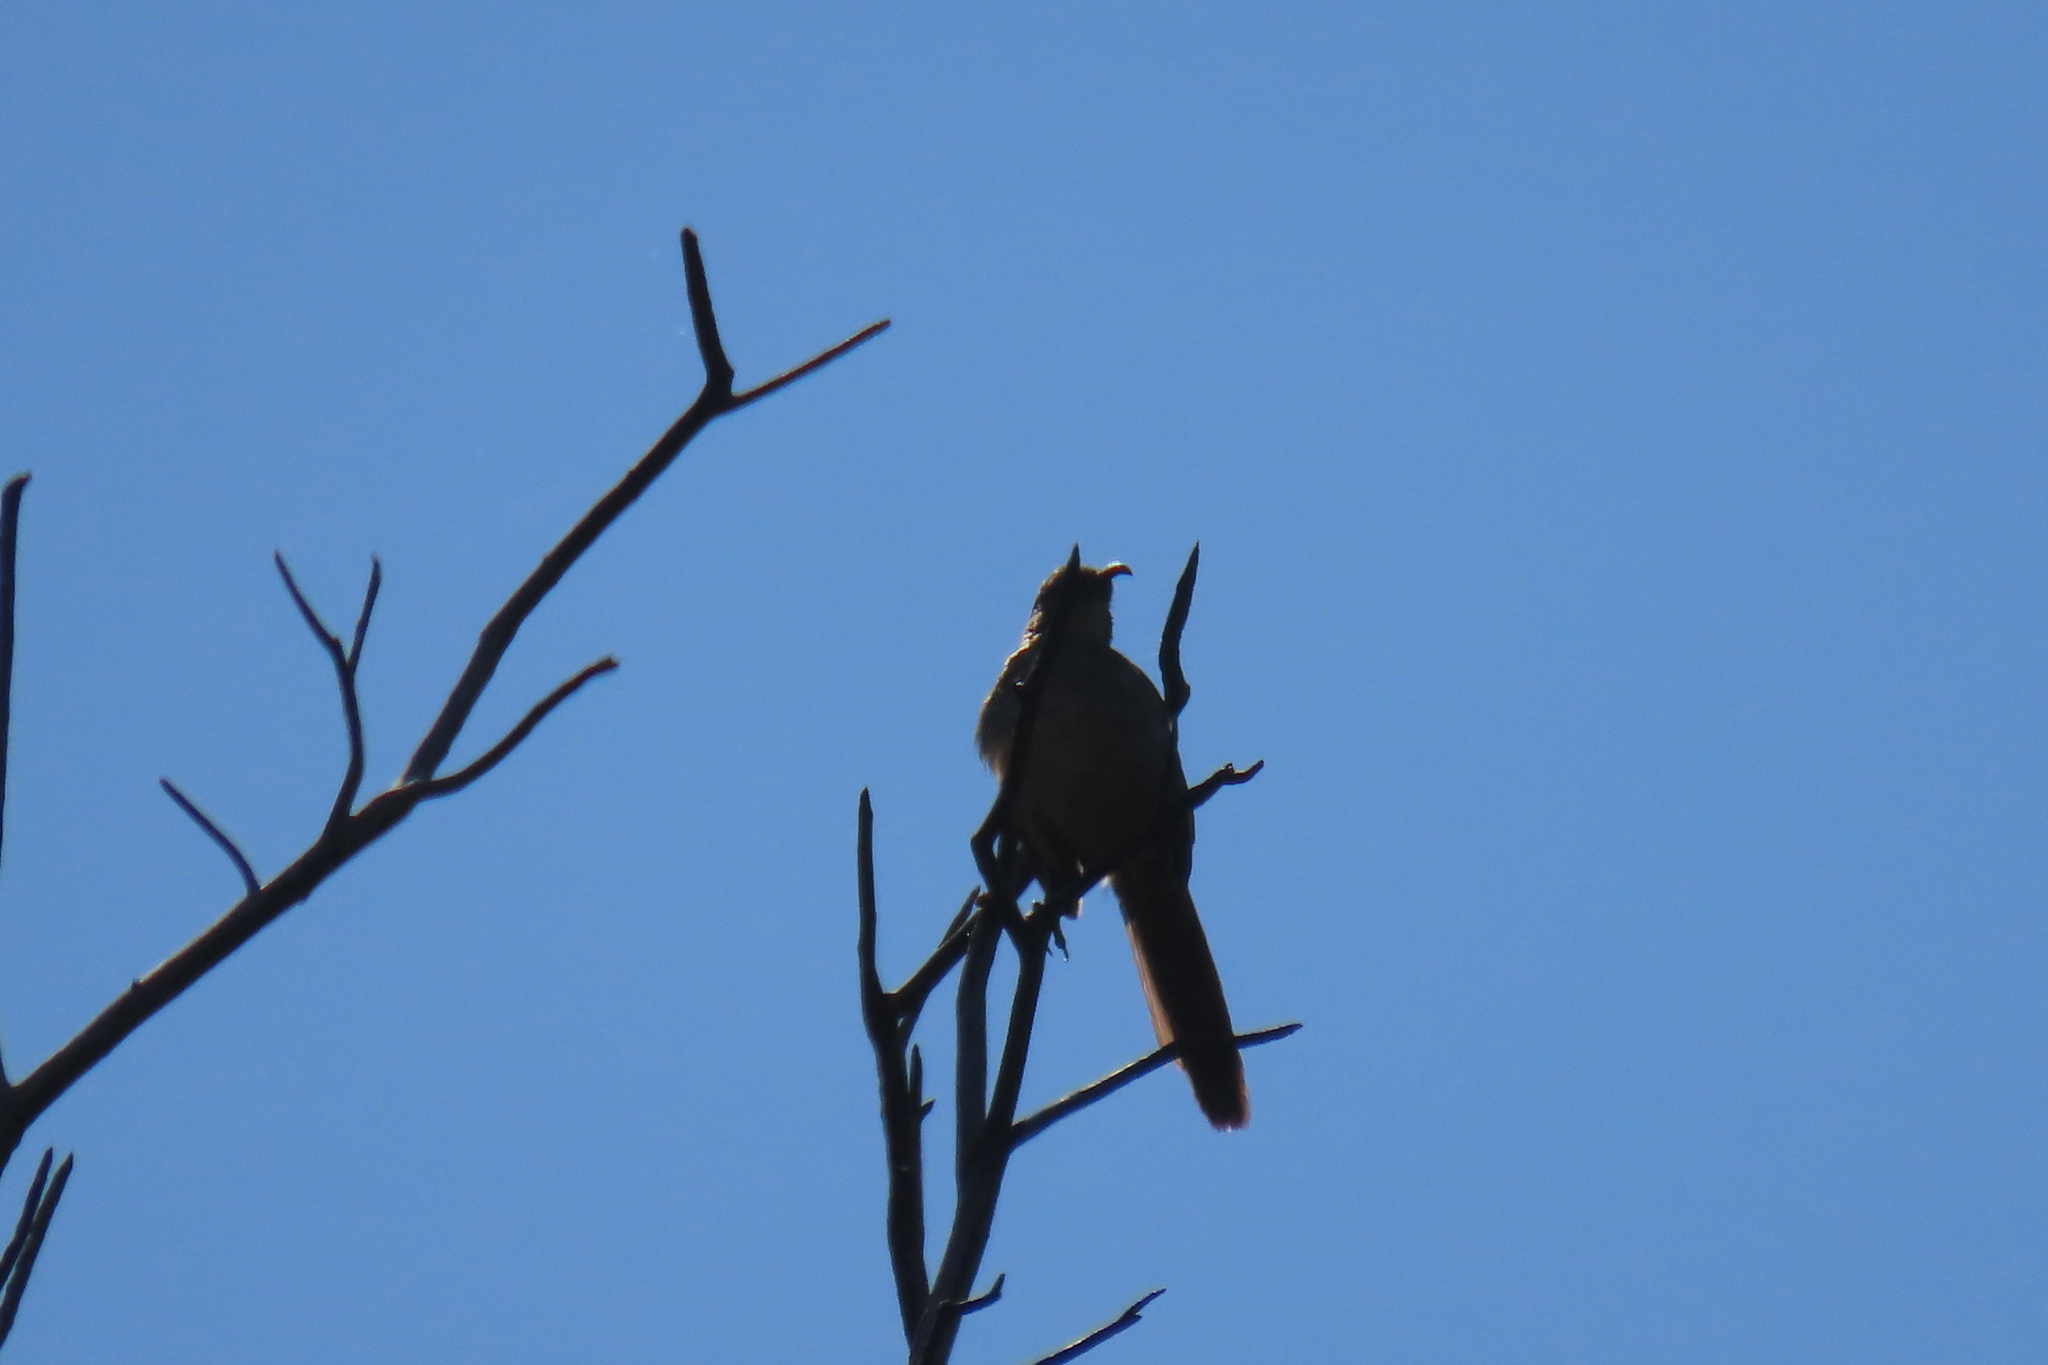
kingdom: Animalia
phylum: Chordata
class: Aves
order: Passeriformes
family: Mimidae
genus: Toxostoma
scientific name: Toxostoma redivivum
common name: California thrasher
